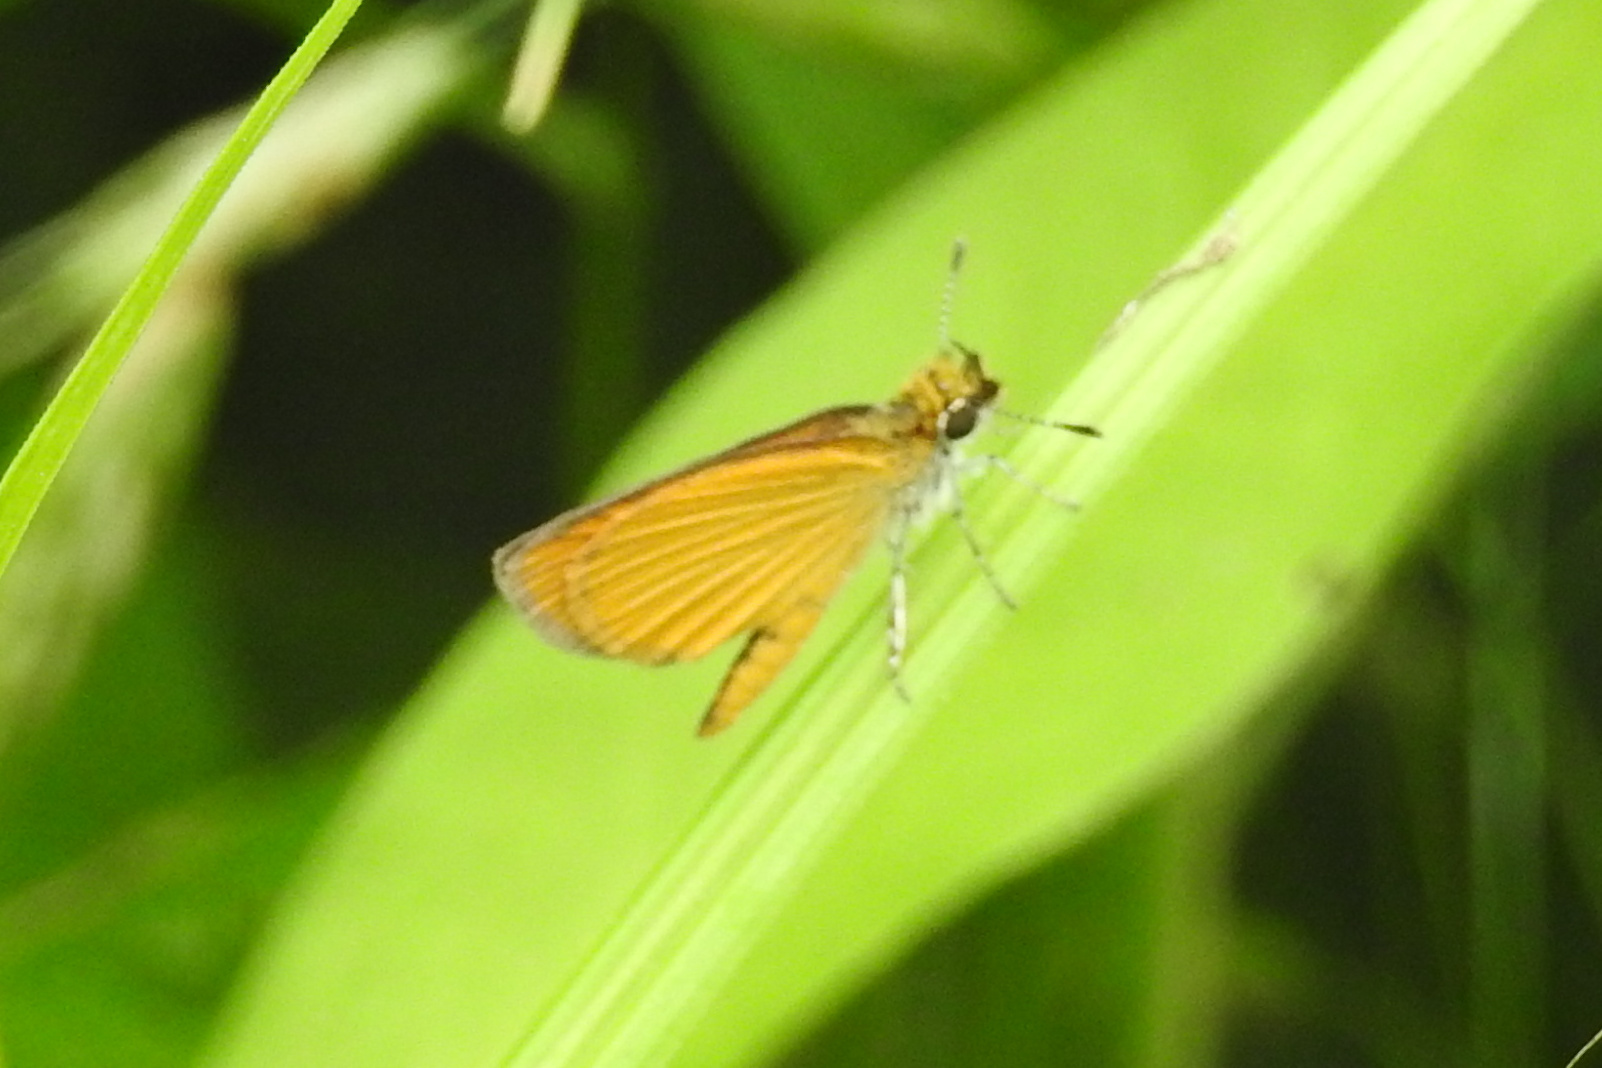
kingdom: Animalia
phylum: Arthropoda
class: Insecta
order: Lepidoptera
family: Hesperiidae
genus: Ancyloxypha
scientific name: Ancyloxypha numitor
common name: Least skipper
